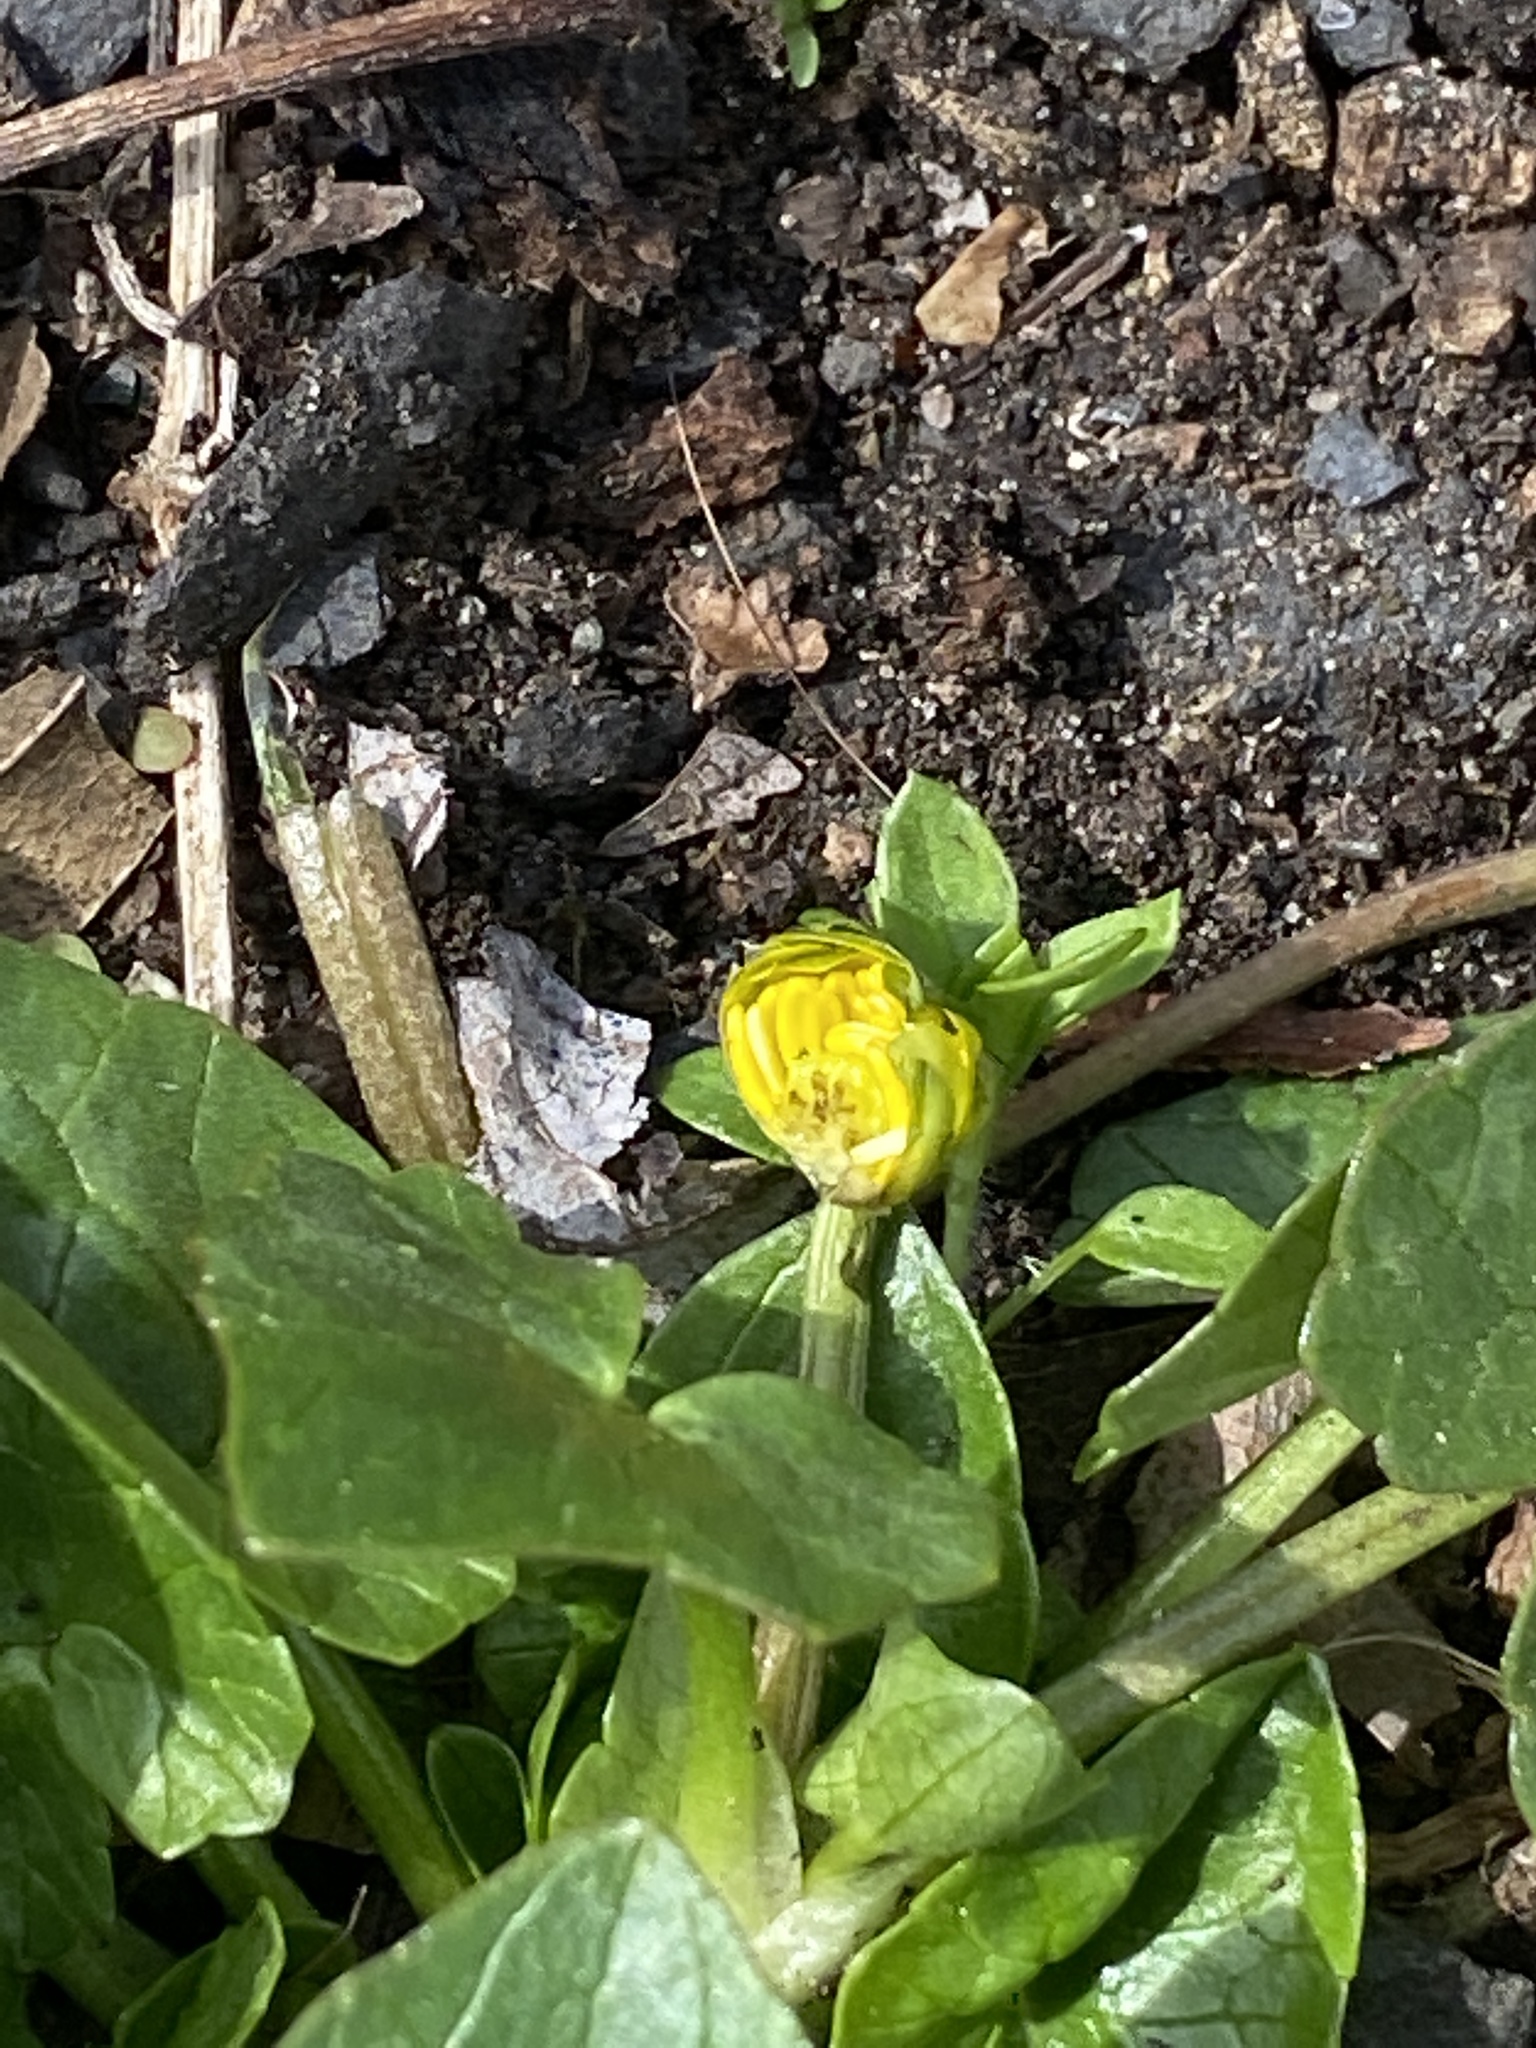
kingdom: Plantae
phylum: Tracheophyta
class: Magnoliopsida
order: Ranunculales
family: Ranunculaceae
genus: Ficaria
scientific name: Ficaria verna
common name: Lesser celandine
